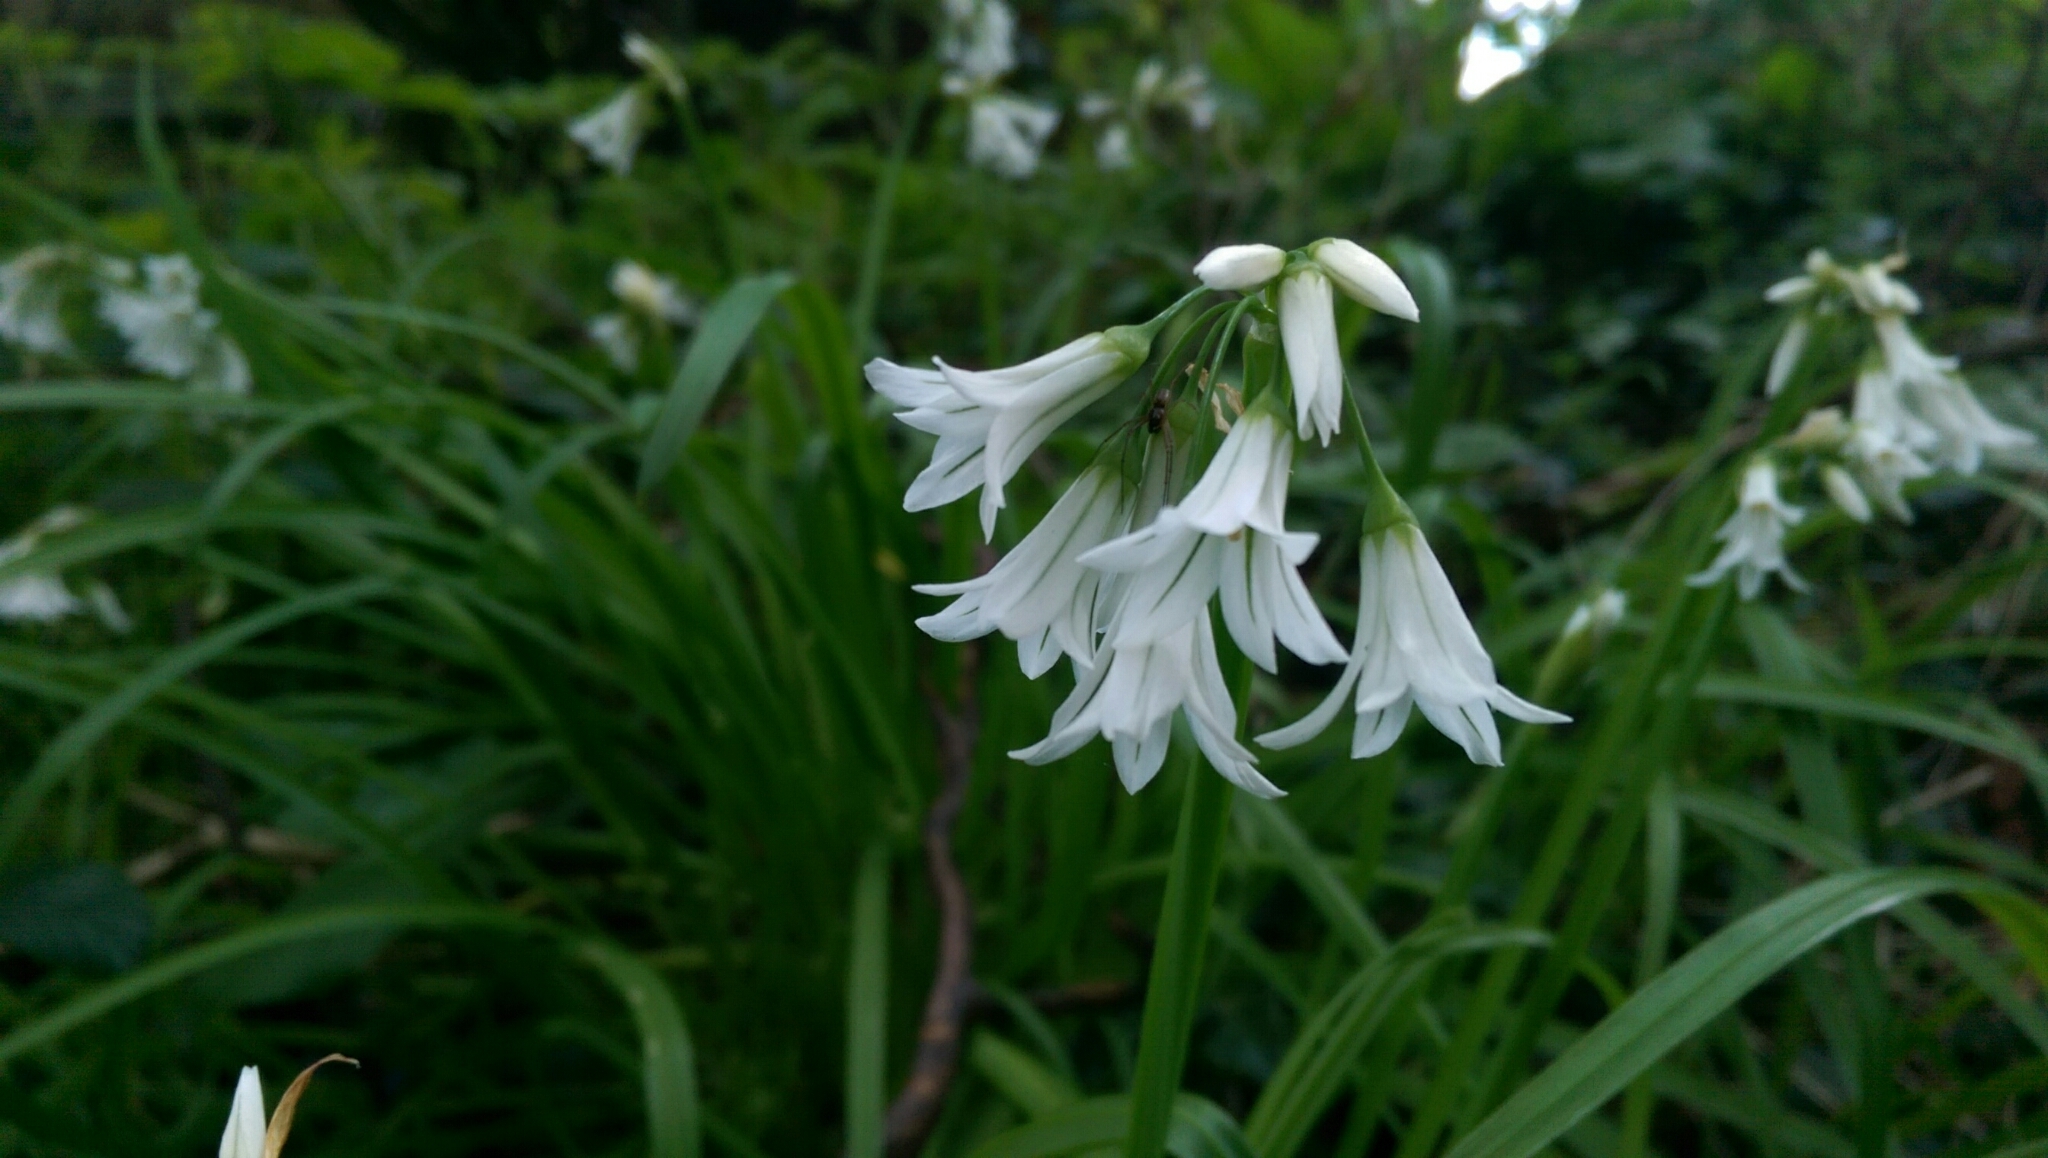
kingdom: Plantae
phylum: Tracheophyta
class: Liliopsida
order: Asparagales
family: Amaryllidaceae
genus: Allium
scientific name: Allium triquetrum
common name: Three-cornered garlic
